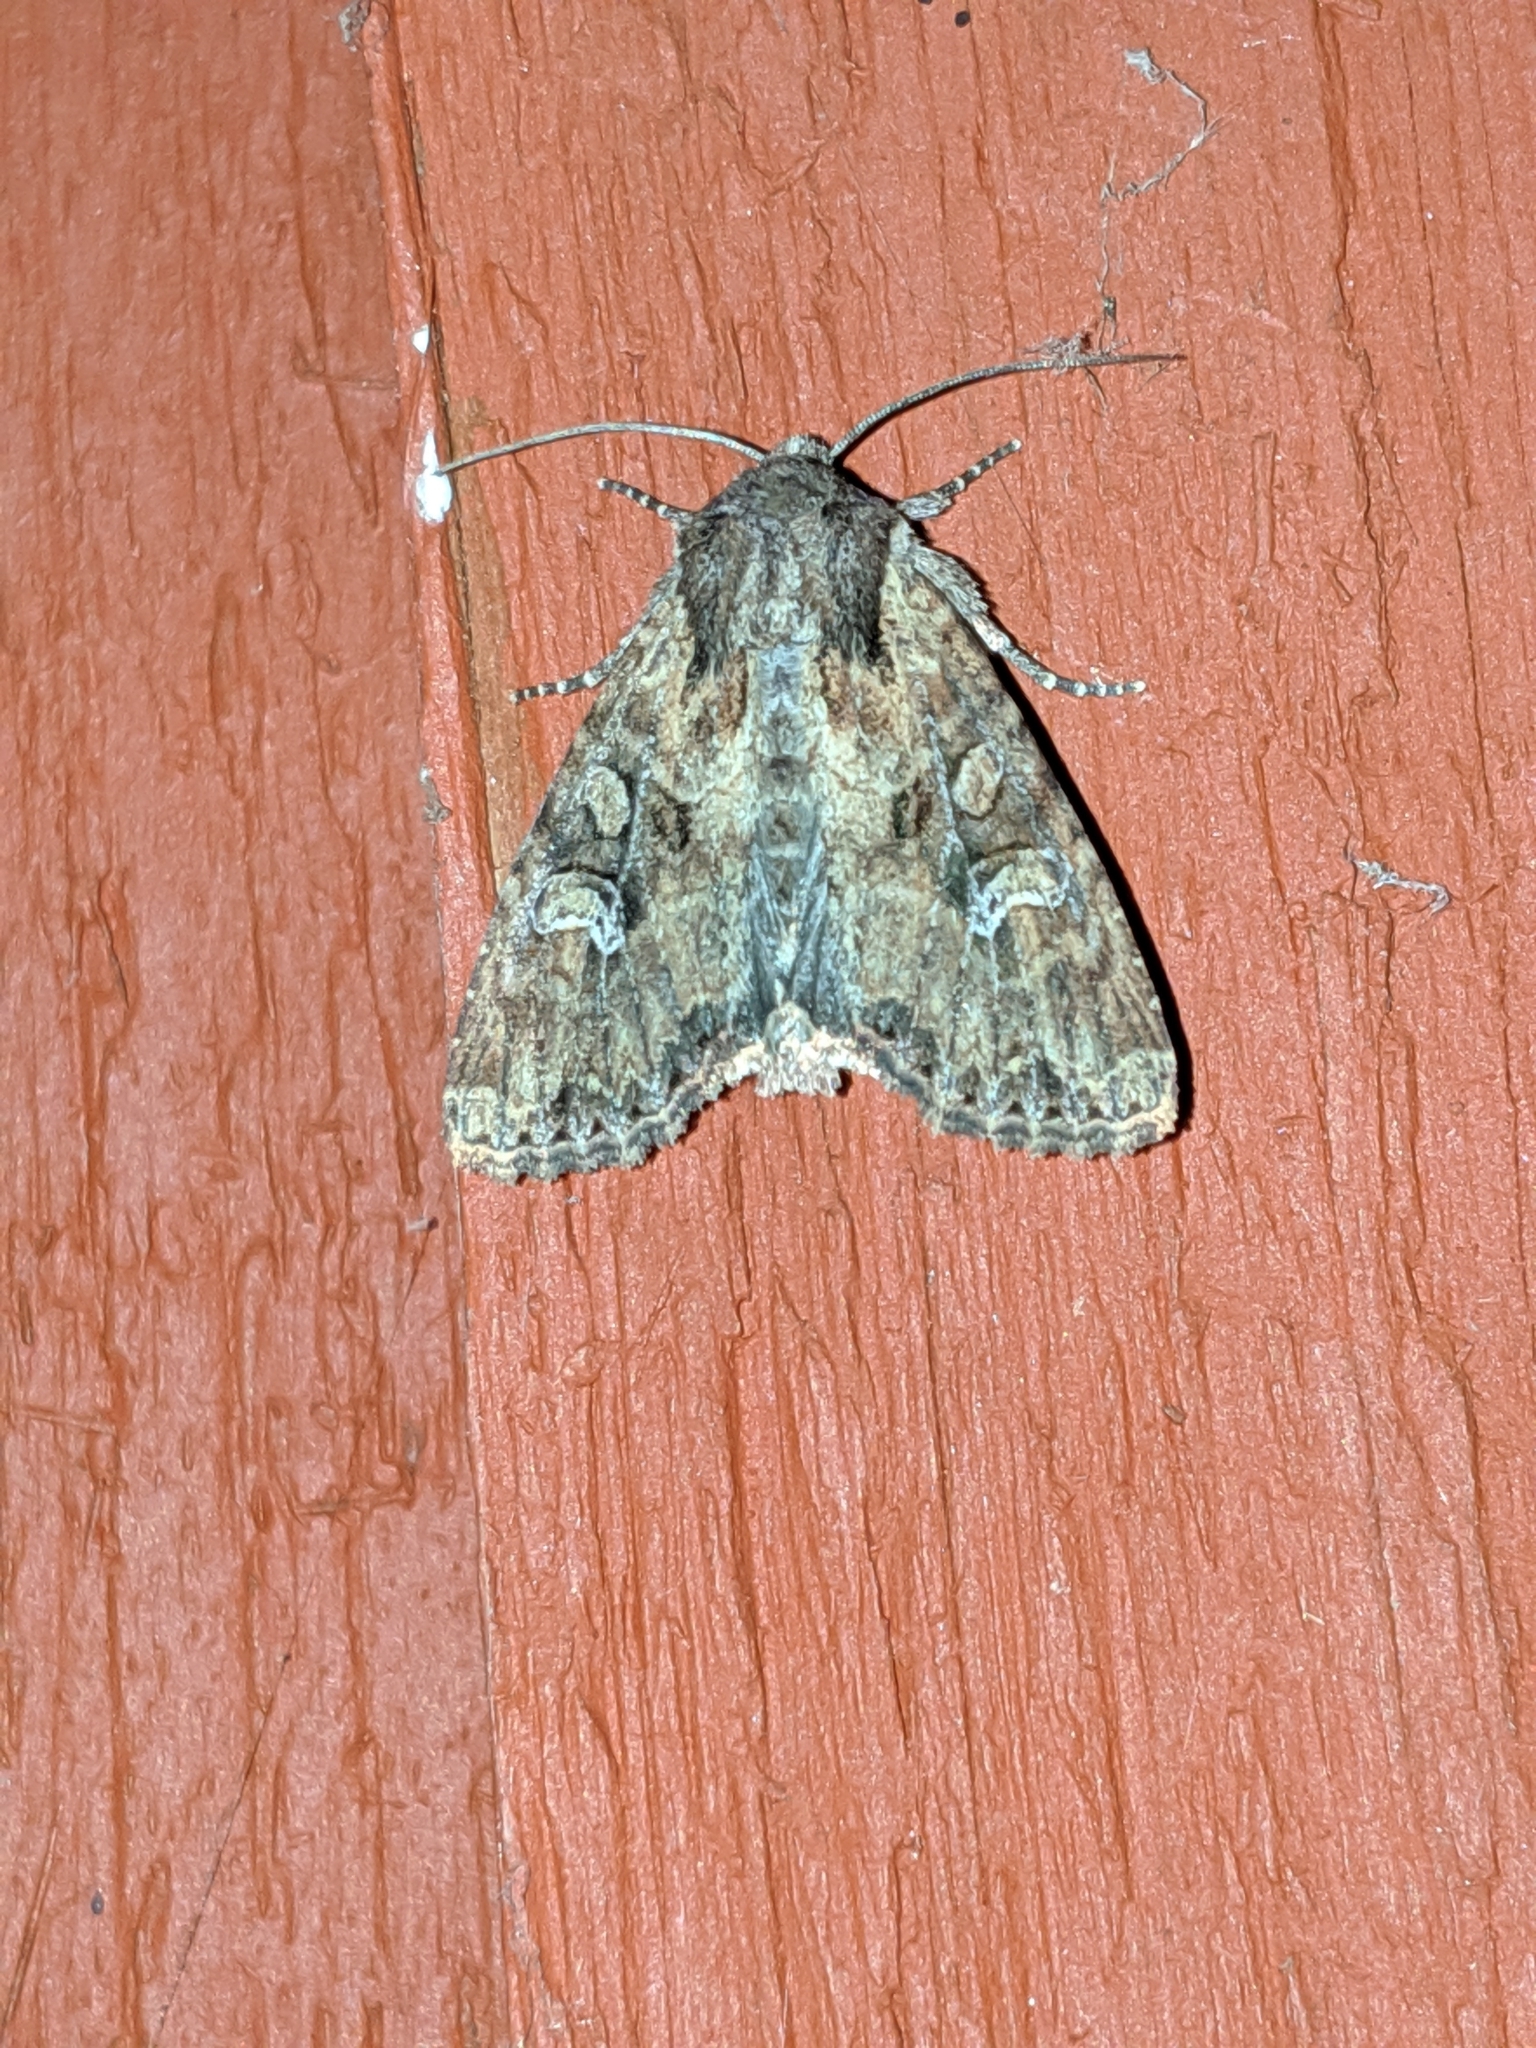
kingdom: Animalia
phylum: Arthropoda
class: Insecta
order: Lepidoptera
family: Noctuidae
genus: Apamea
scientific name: Apamea unanimis
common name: Small clouded brindle
